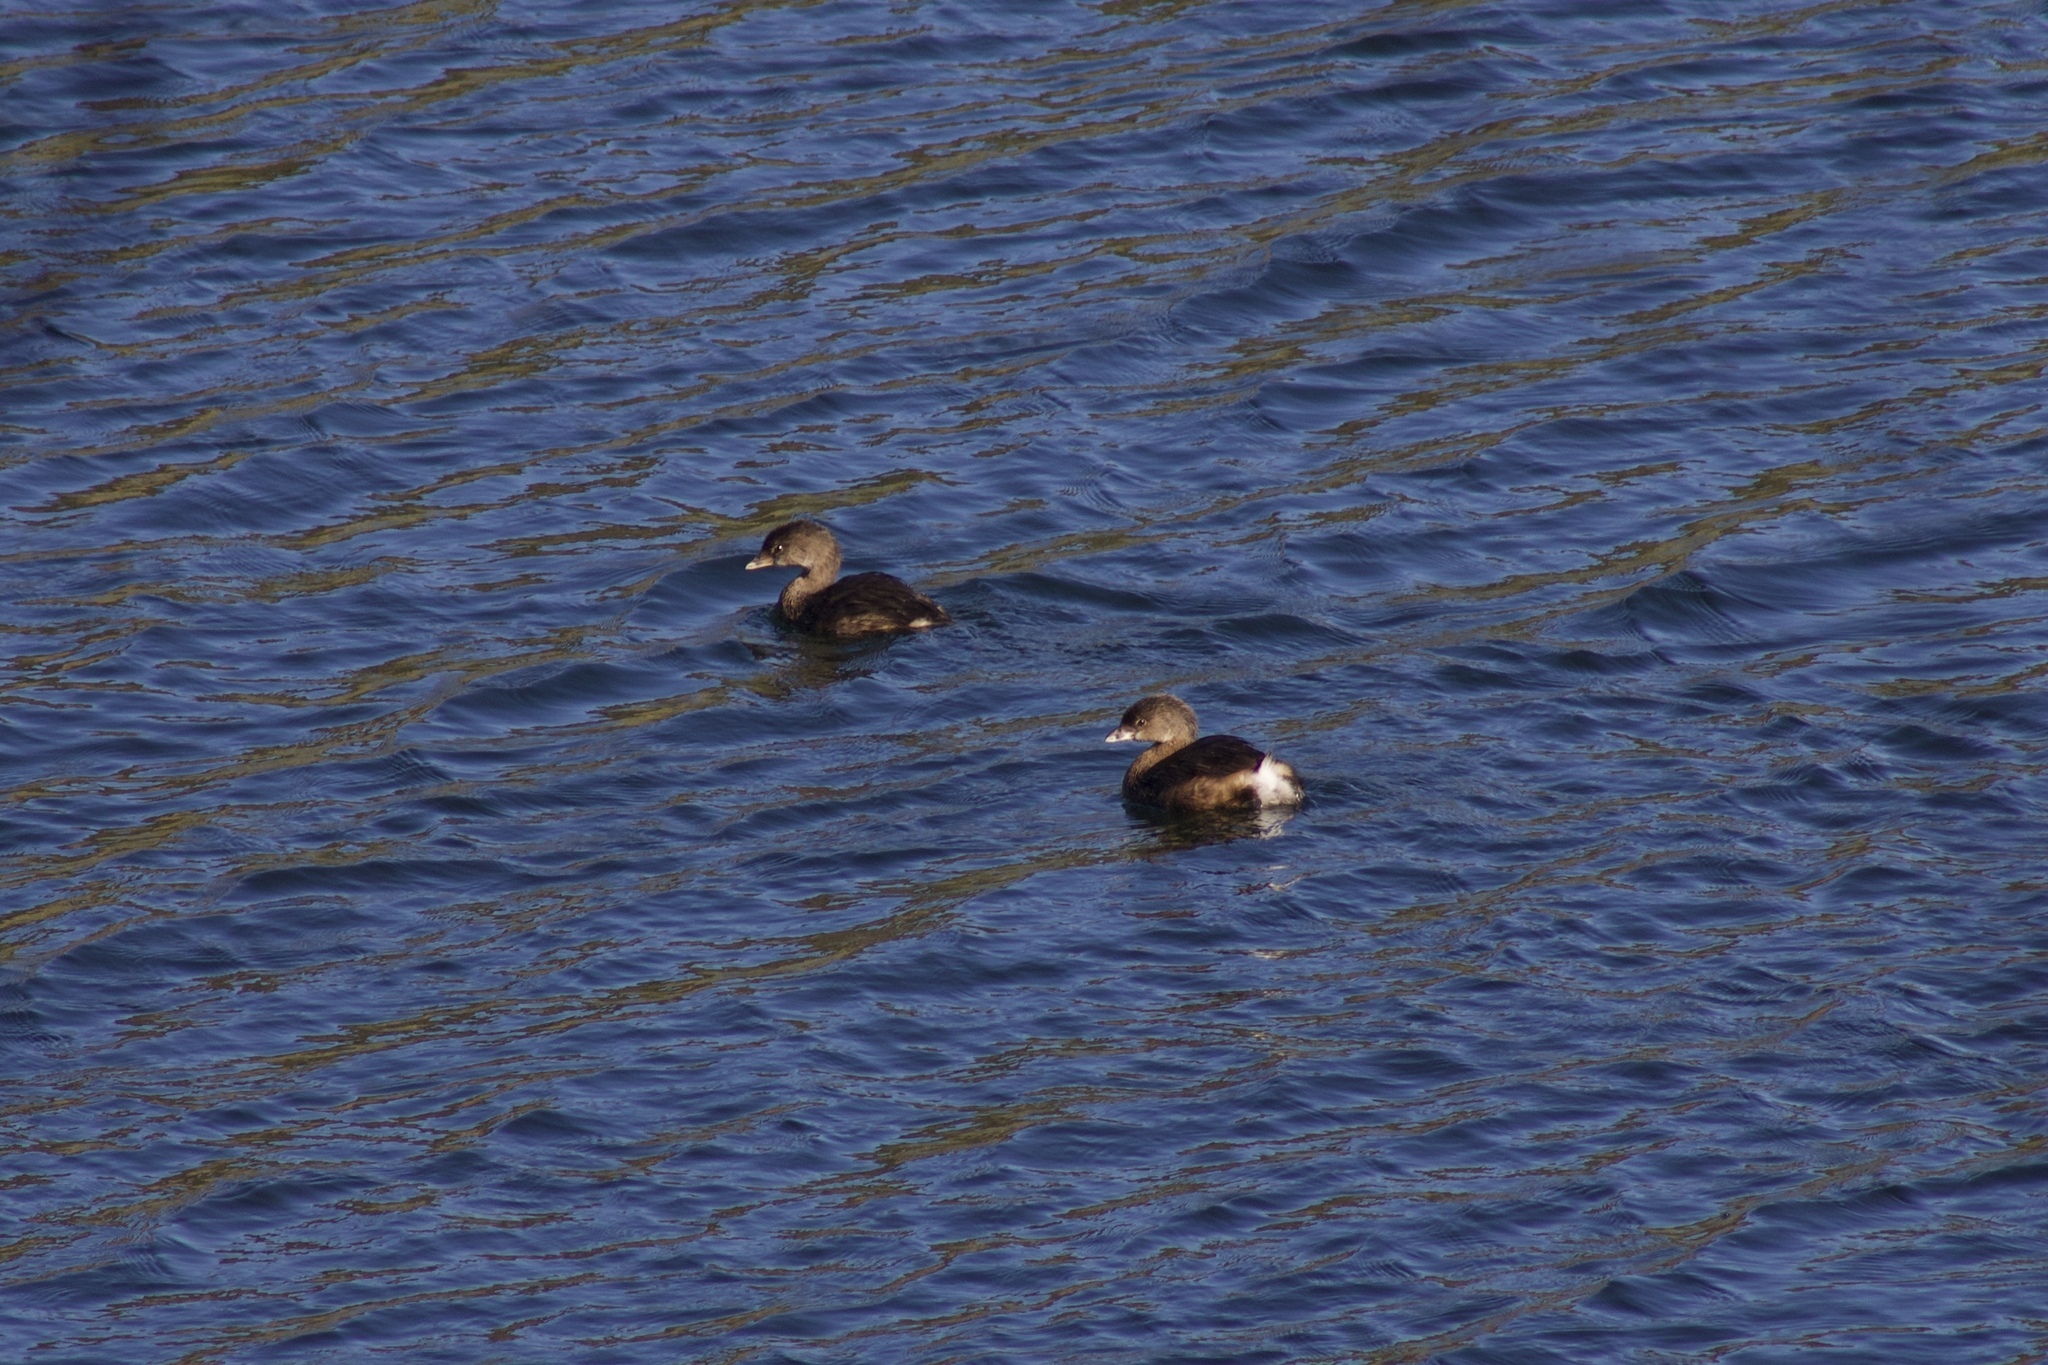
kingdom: Animalia
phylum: Chordata
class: Aves
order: Podicipediformes
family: Podicipedidae
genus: Podilymbus
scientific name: Podilymbus podiceps
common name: Pied-billed grebe
